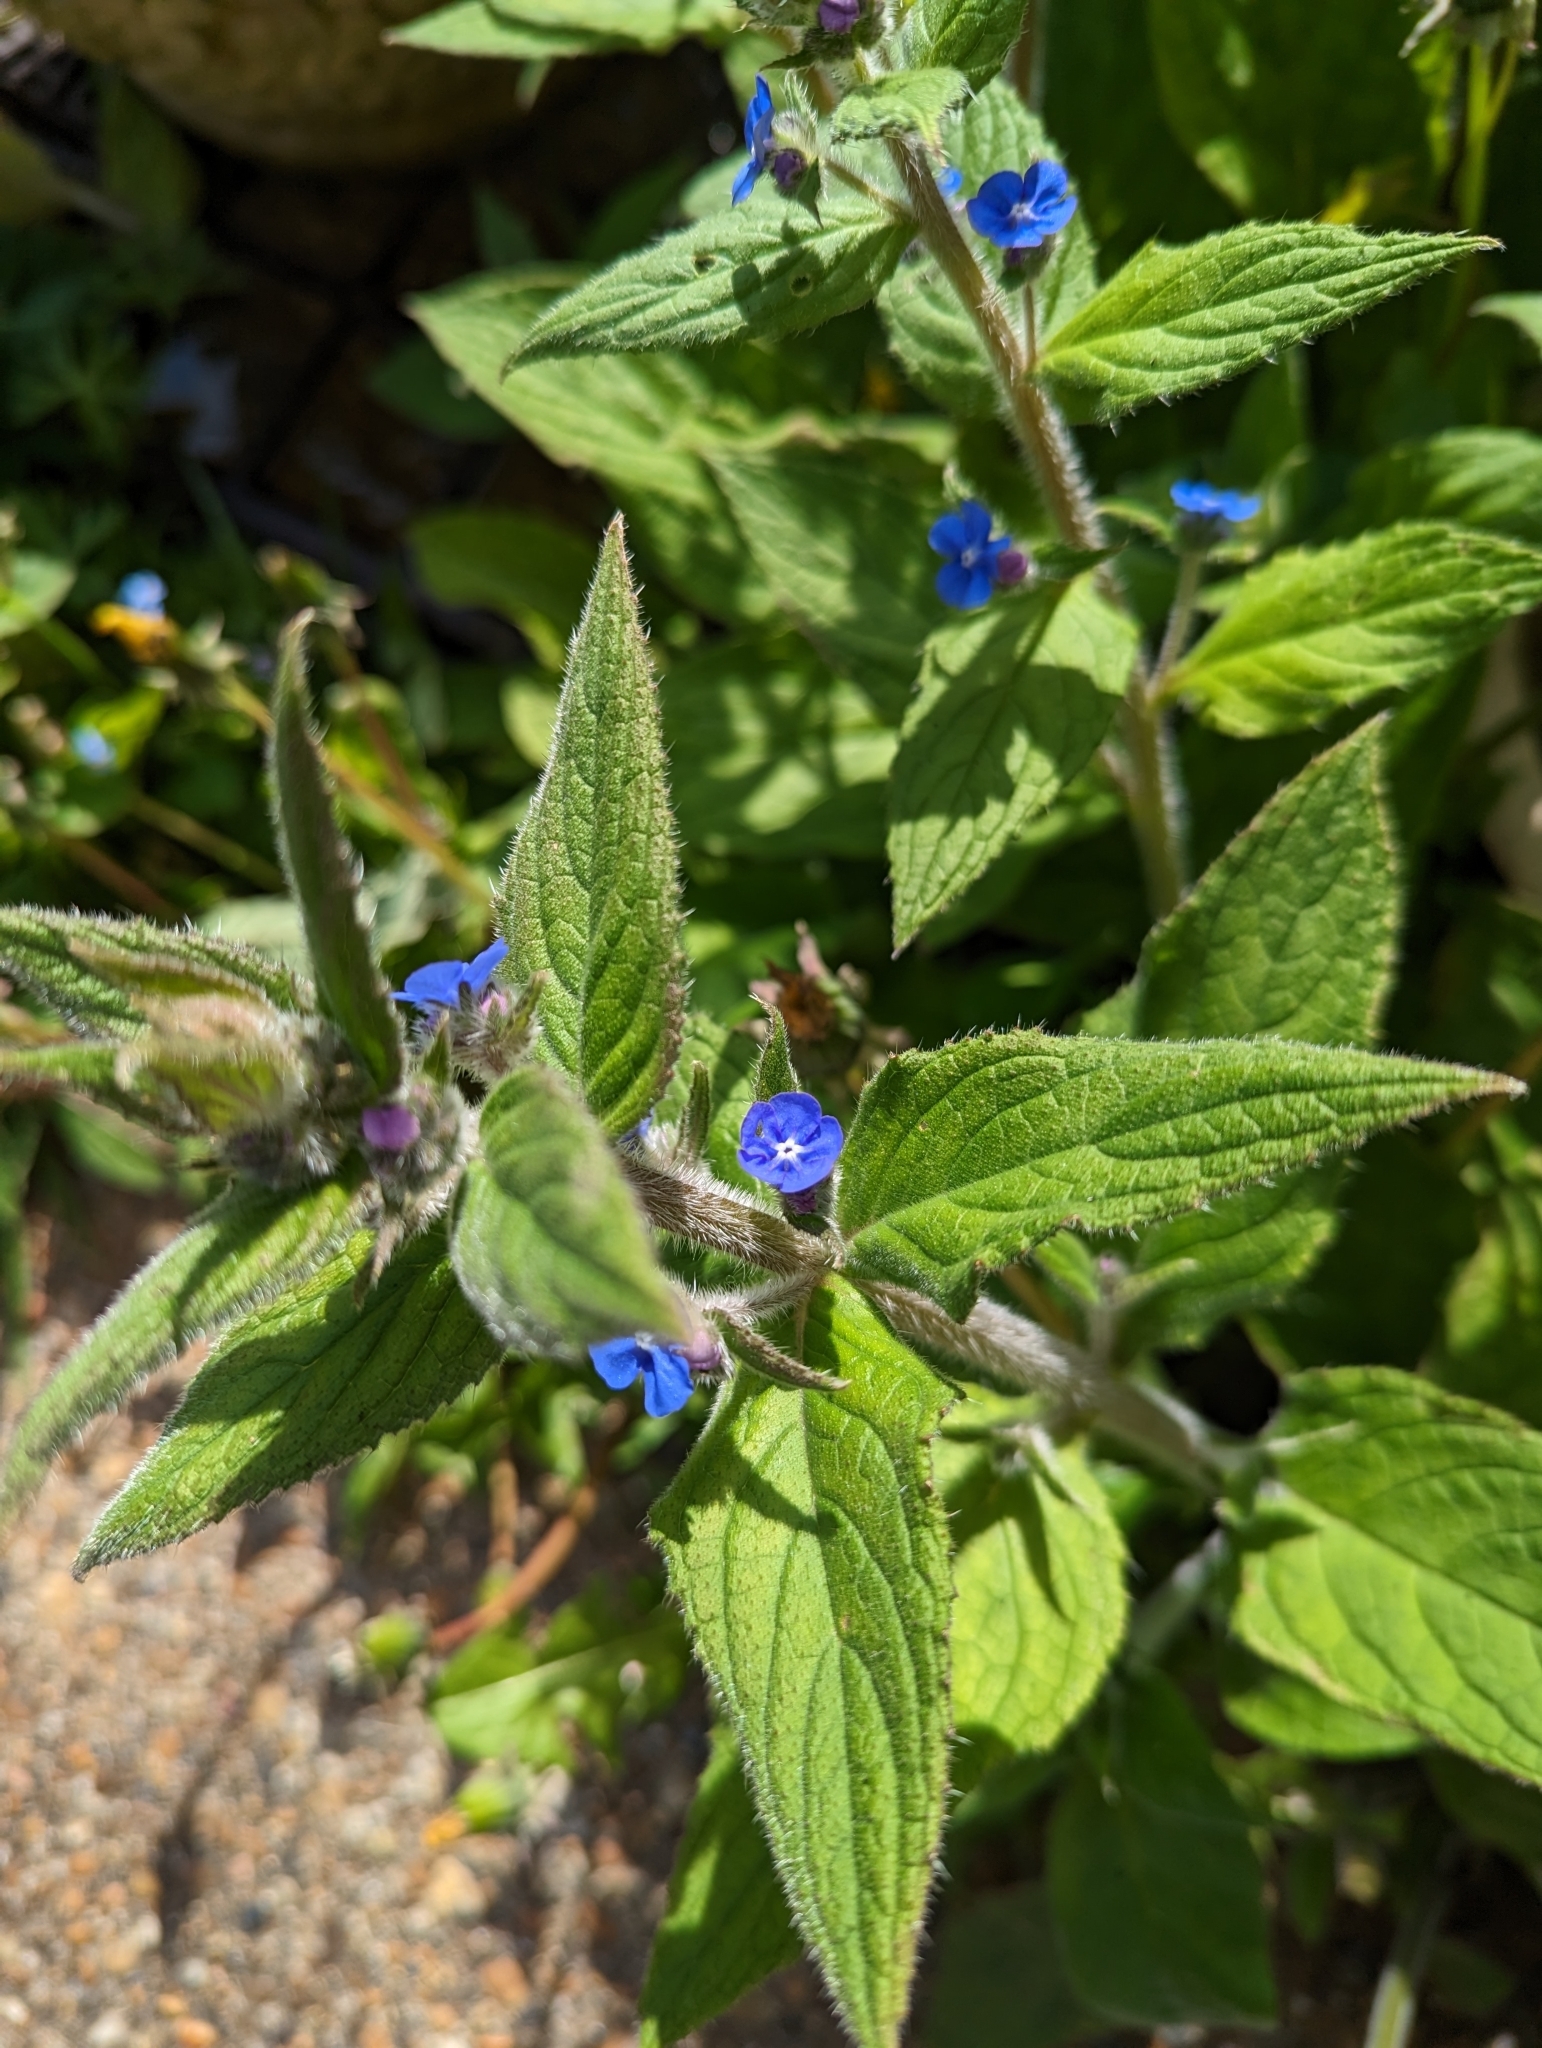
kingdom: Plantae
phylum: Tracheophyta
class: Magnoliopsida
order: Boraginales
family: Boraginaceae
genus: Pentaglottis
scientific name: Pentaglottis sempervirens
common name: Green alkanet
